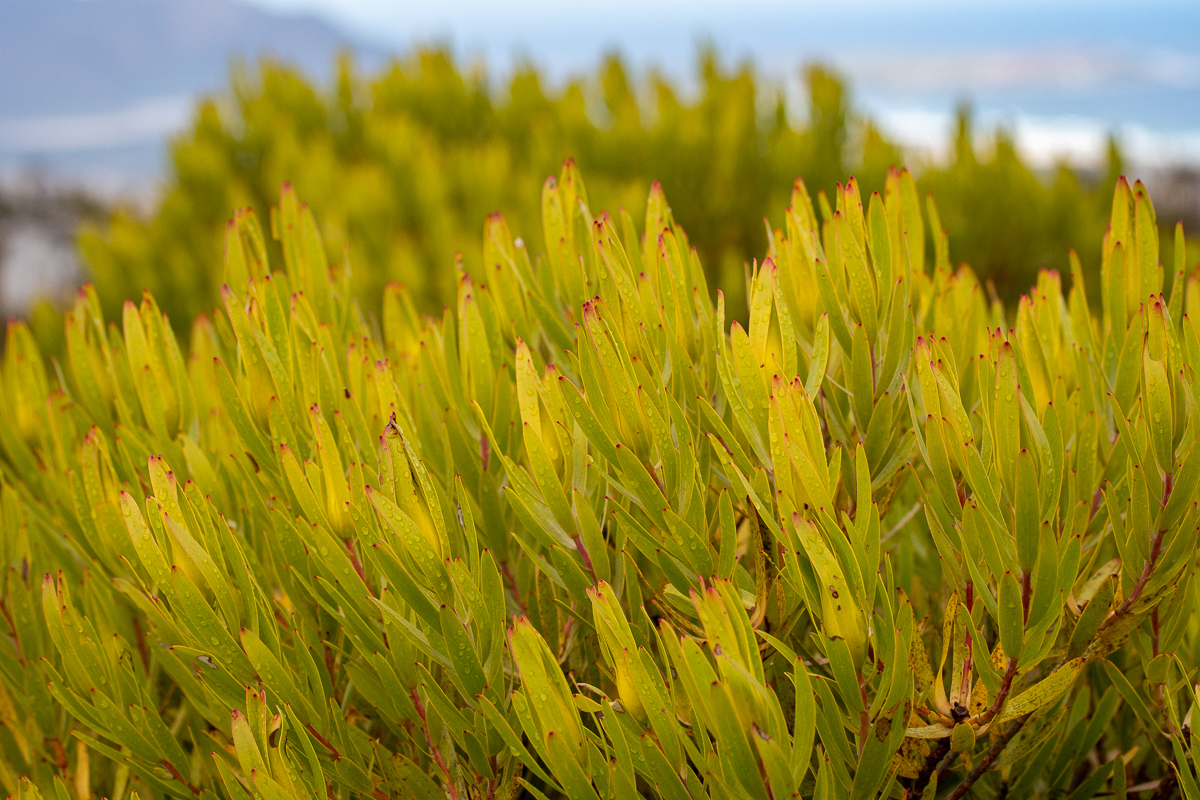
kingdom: Plantae
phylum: Tracheophyta
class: Magnoliopsida
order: Proteales
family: Proteaceae
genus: Leucadendron
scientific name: Leucadendron laureolum
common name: Golden sunshinebush
